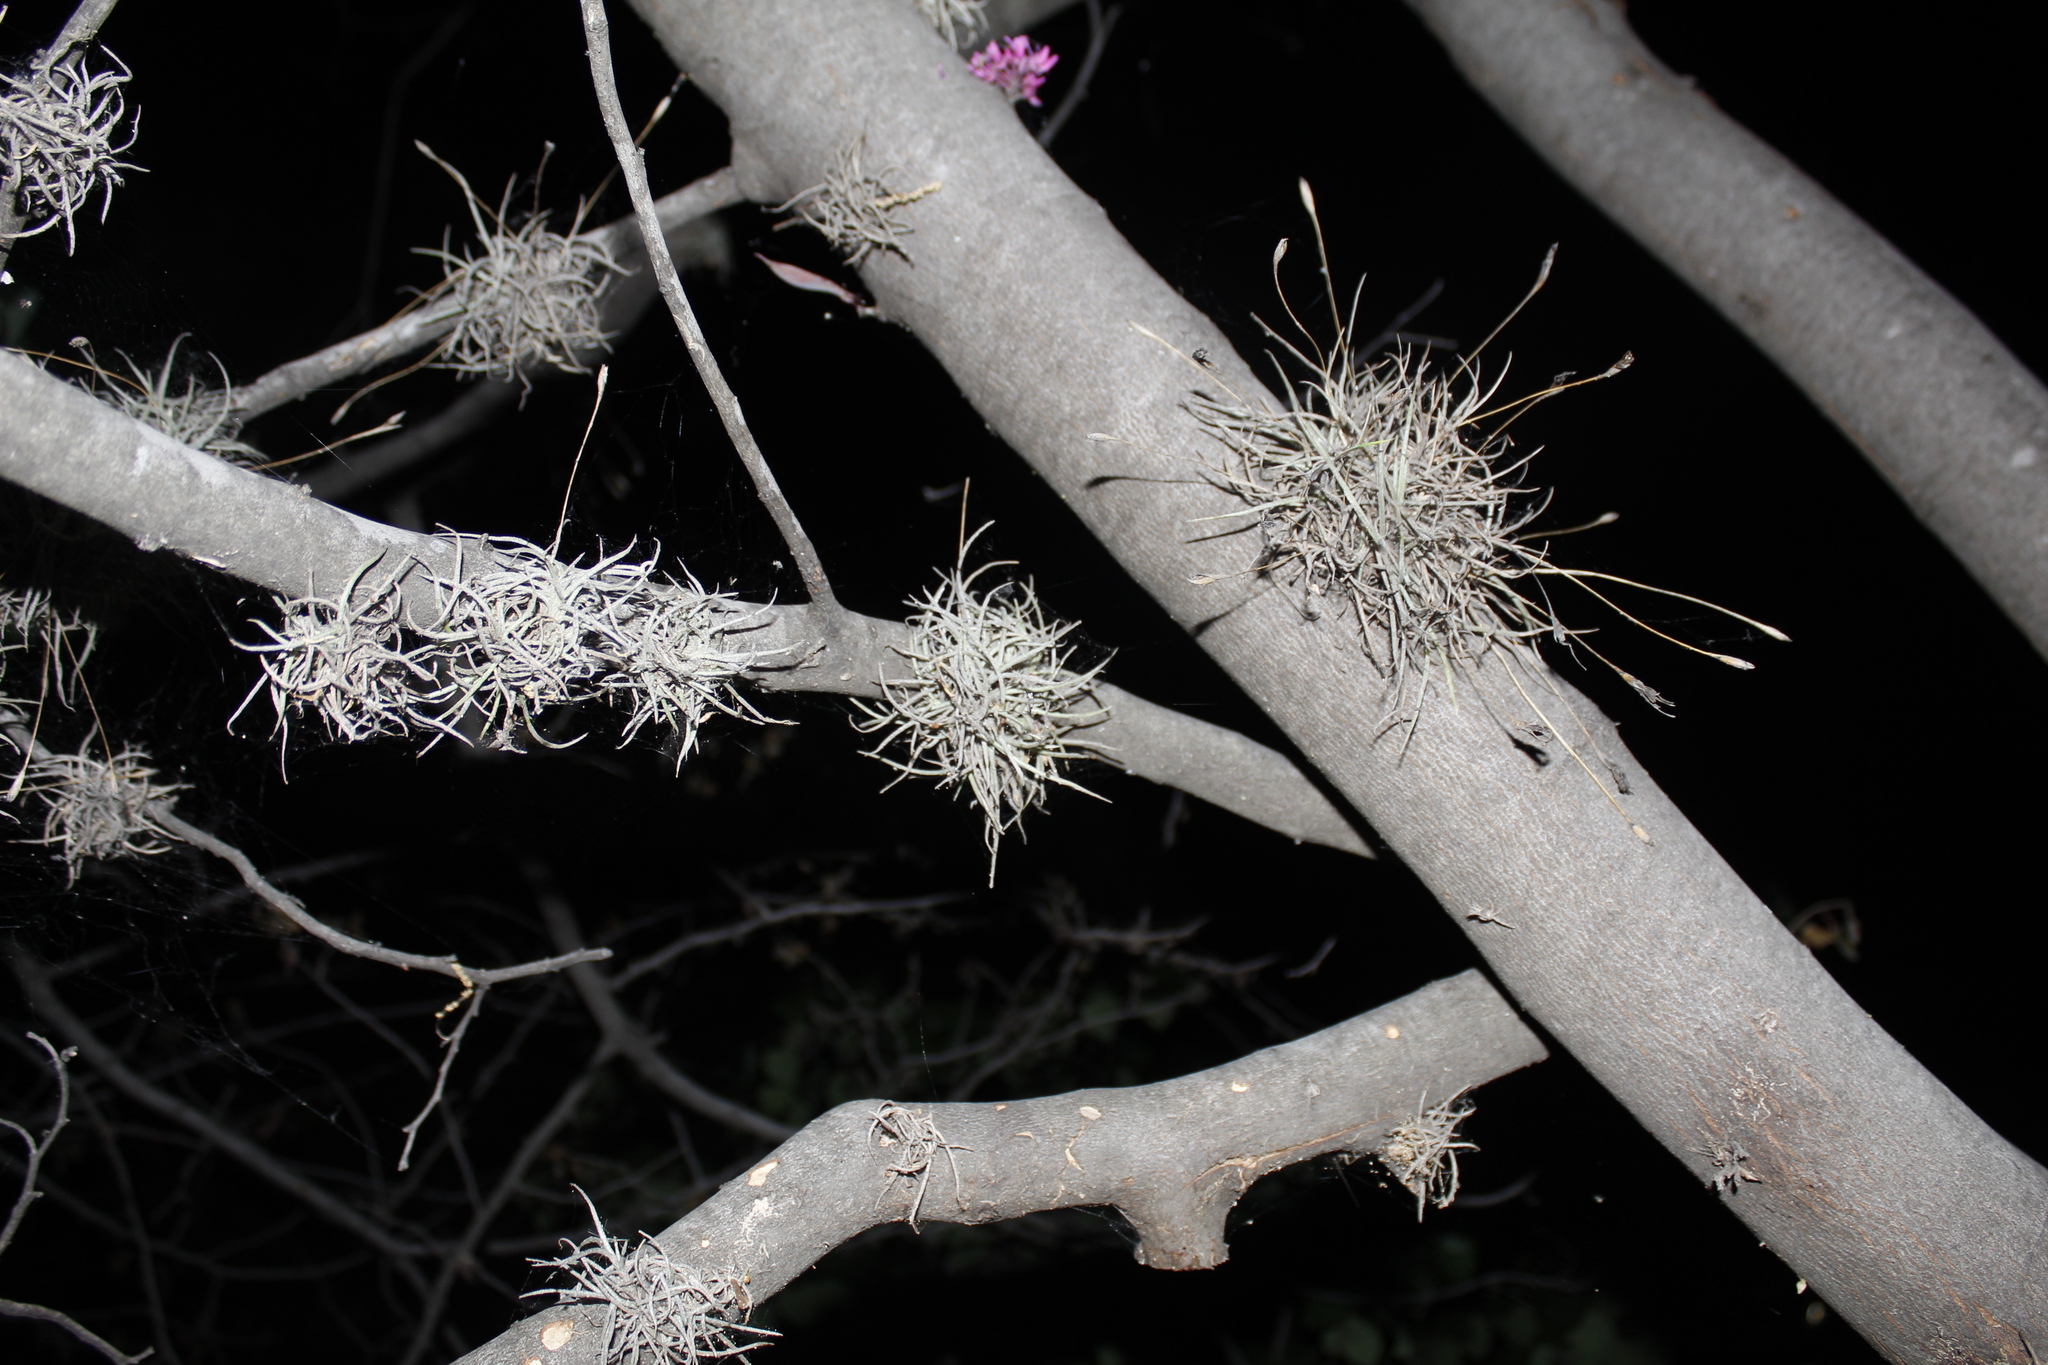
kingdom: Plantae
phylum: Tracheophyta
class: Liliopsida
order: Poales
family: Bromeliaceae
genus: Tillandsia
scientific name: Tillandsia recurvata
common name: Small ballmoss
